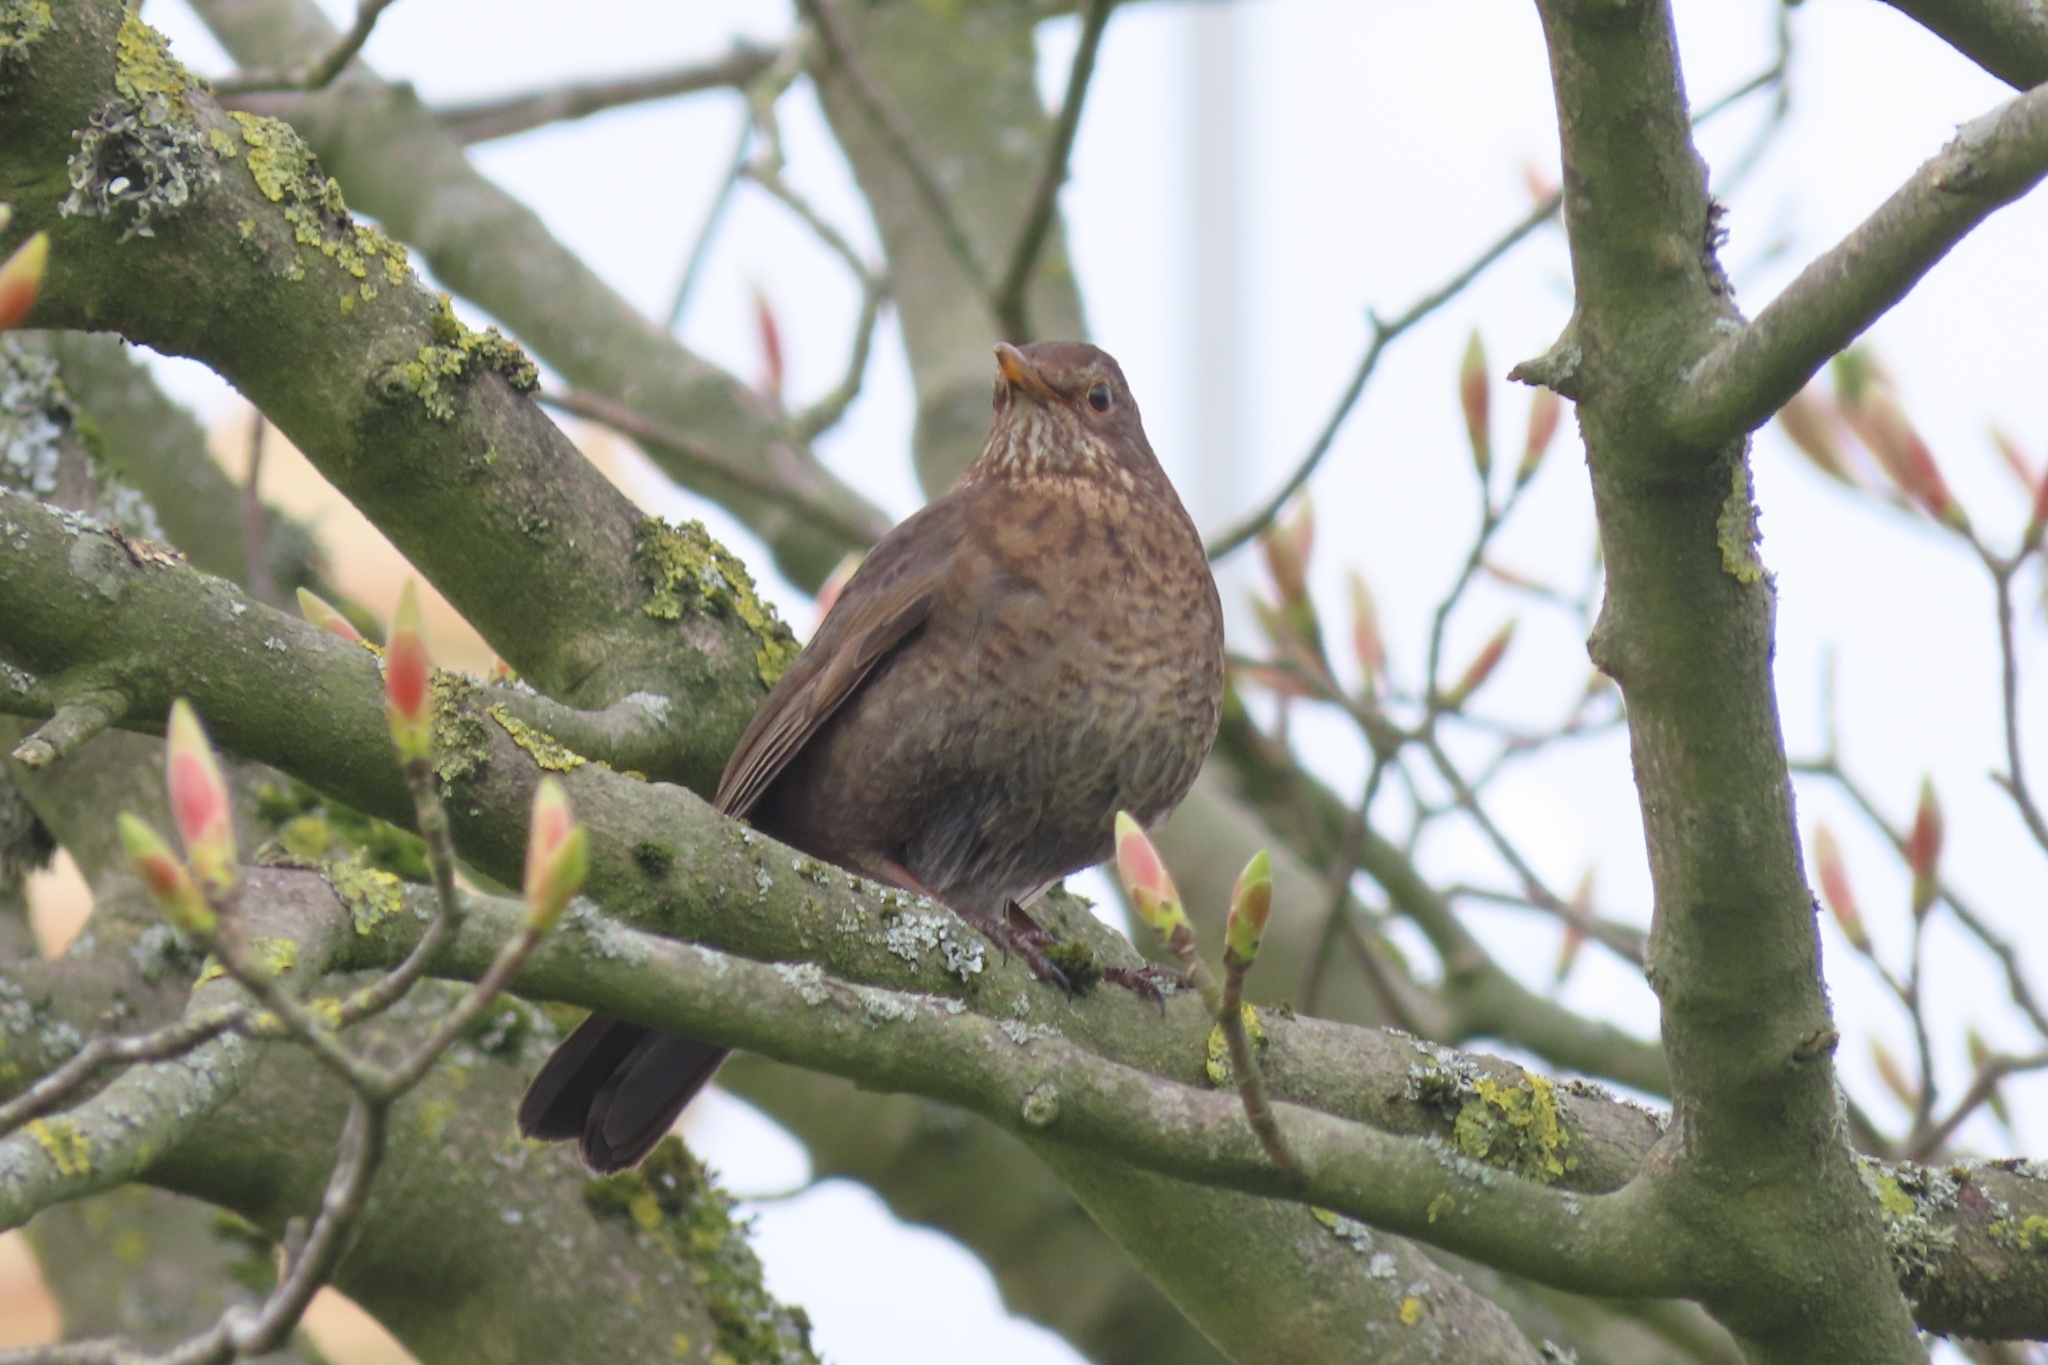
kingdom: Animalia
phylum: Chordata
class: Aves
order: Passeriformes
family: Turdidae
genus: Turdus
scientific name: Turdus merula
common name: Common blackbird
